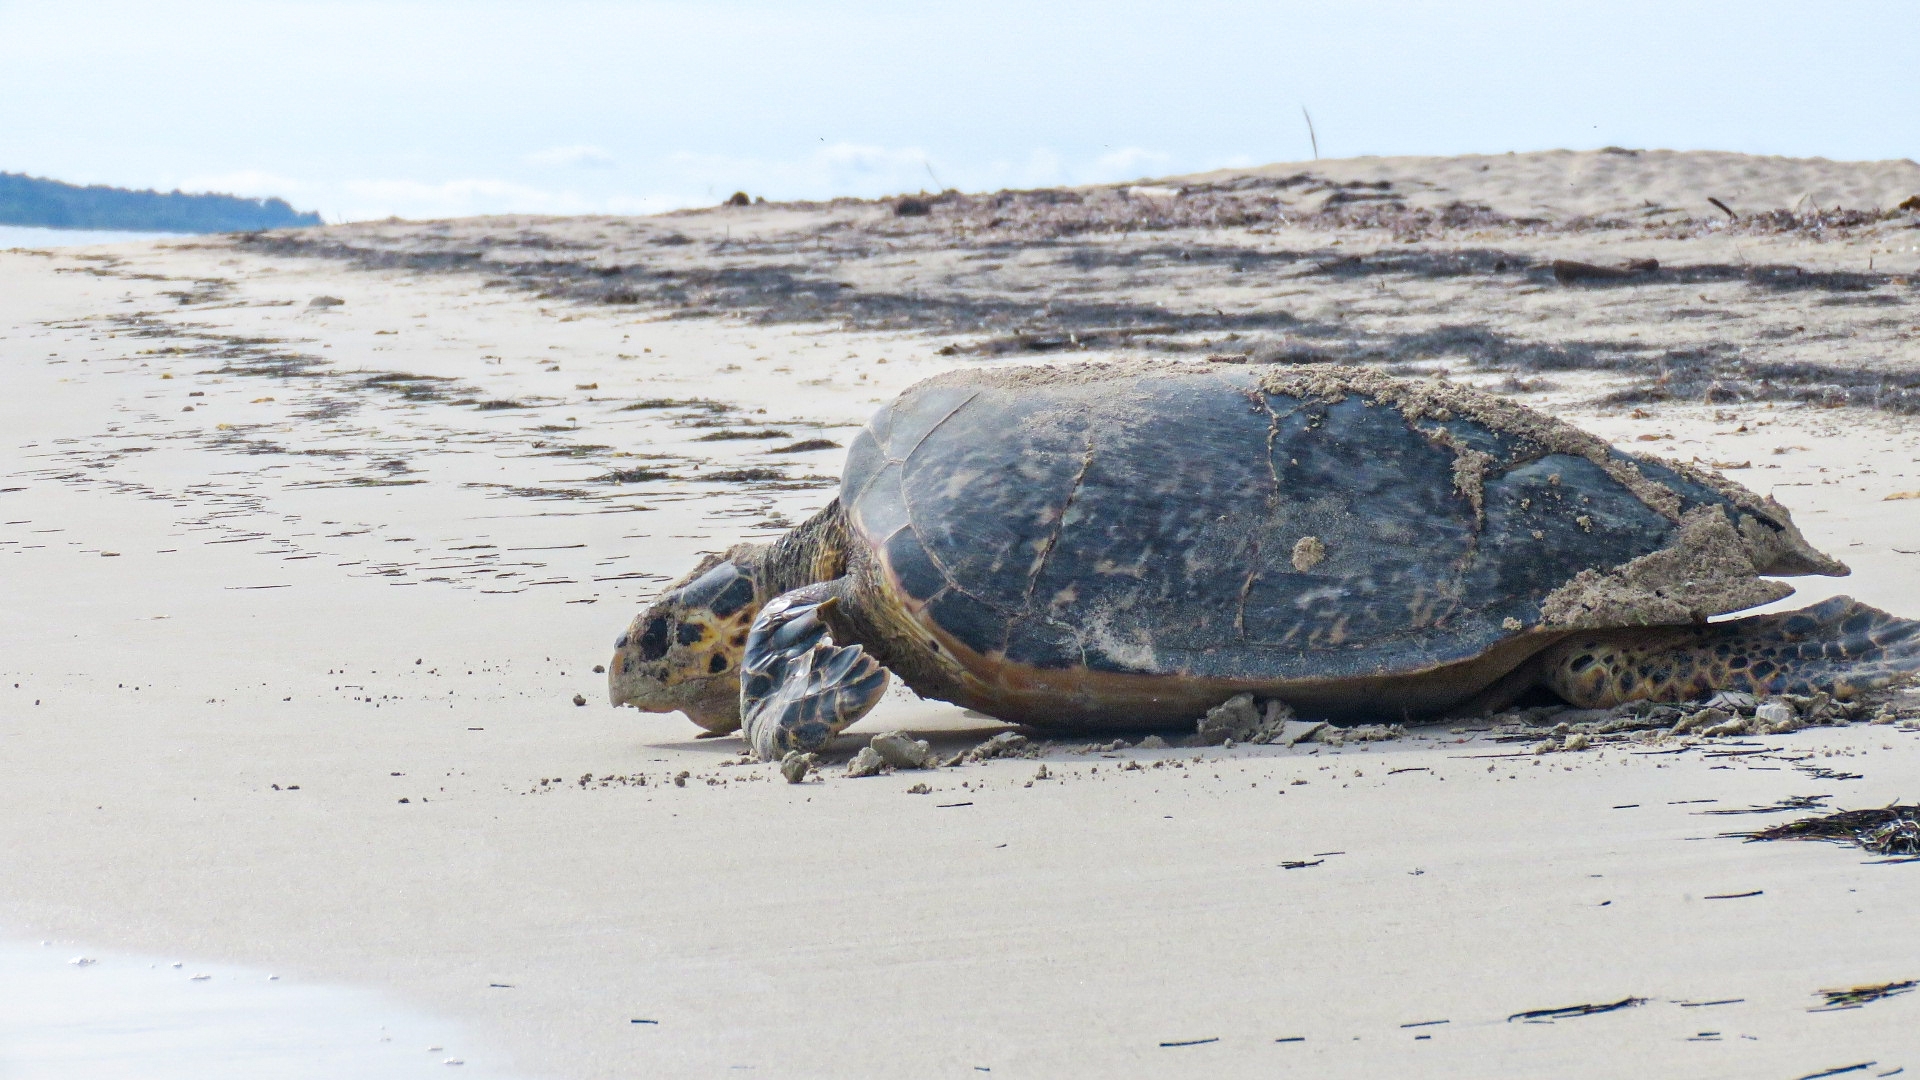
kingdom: Animalia
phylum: Chordata
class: Testudines
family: Cheloniidae
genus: Eretmochelys
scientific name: Eretmochelys imbricata
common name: Hawksbill turtle
